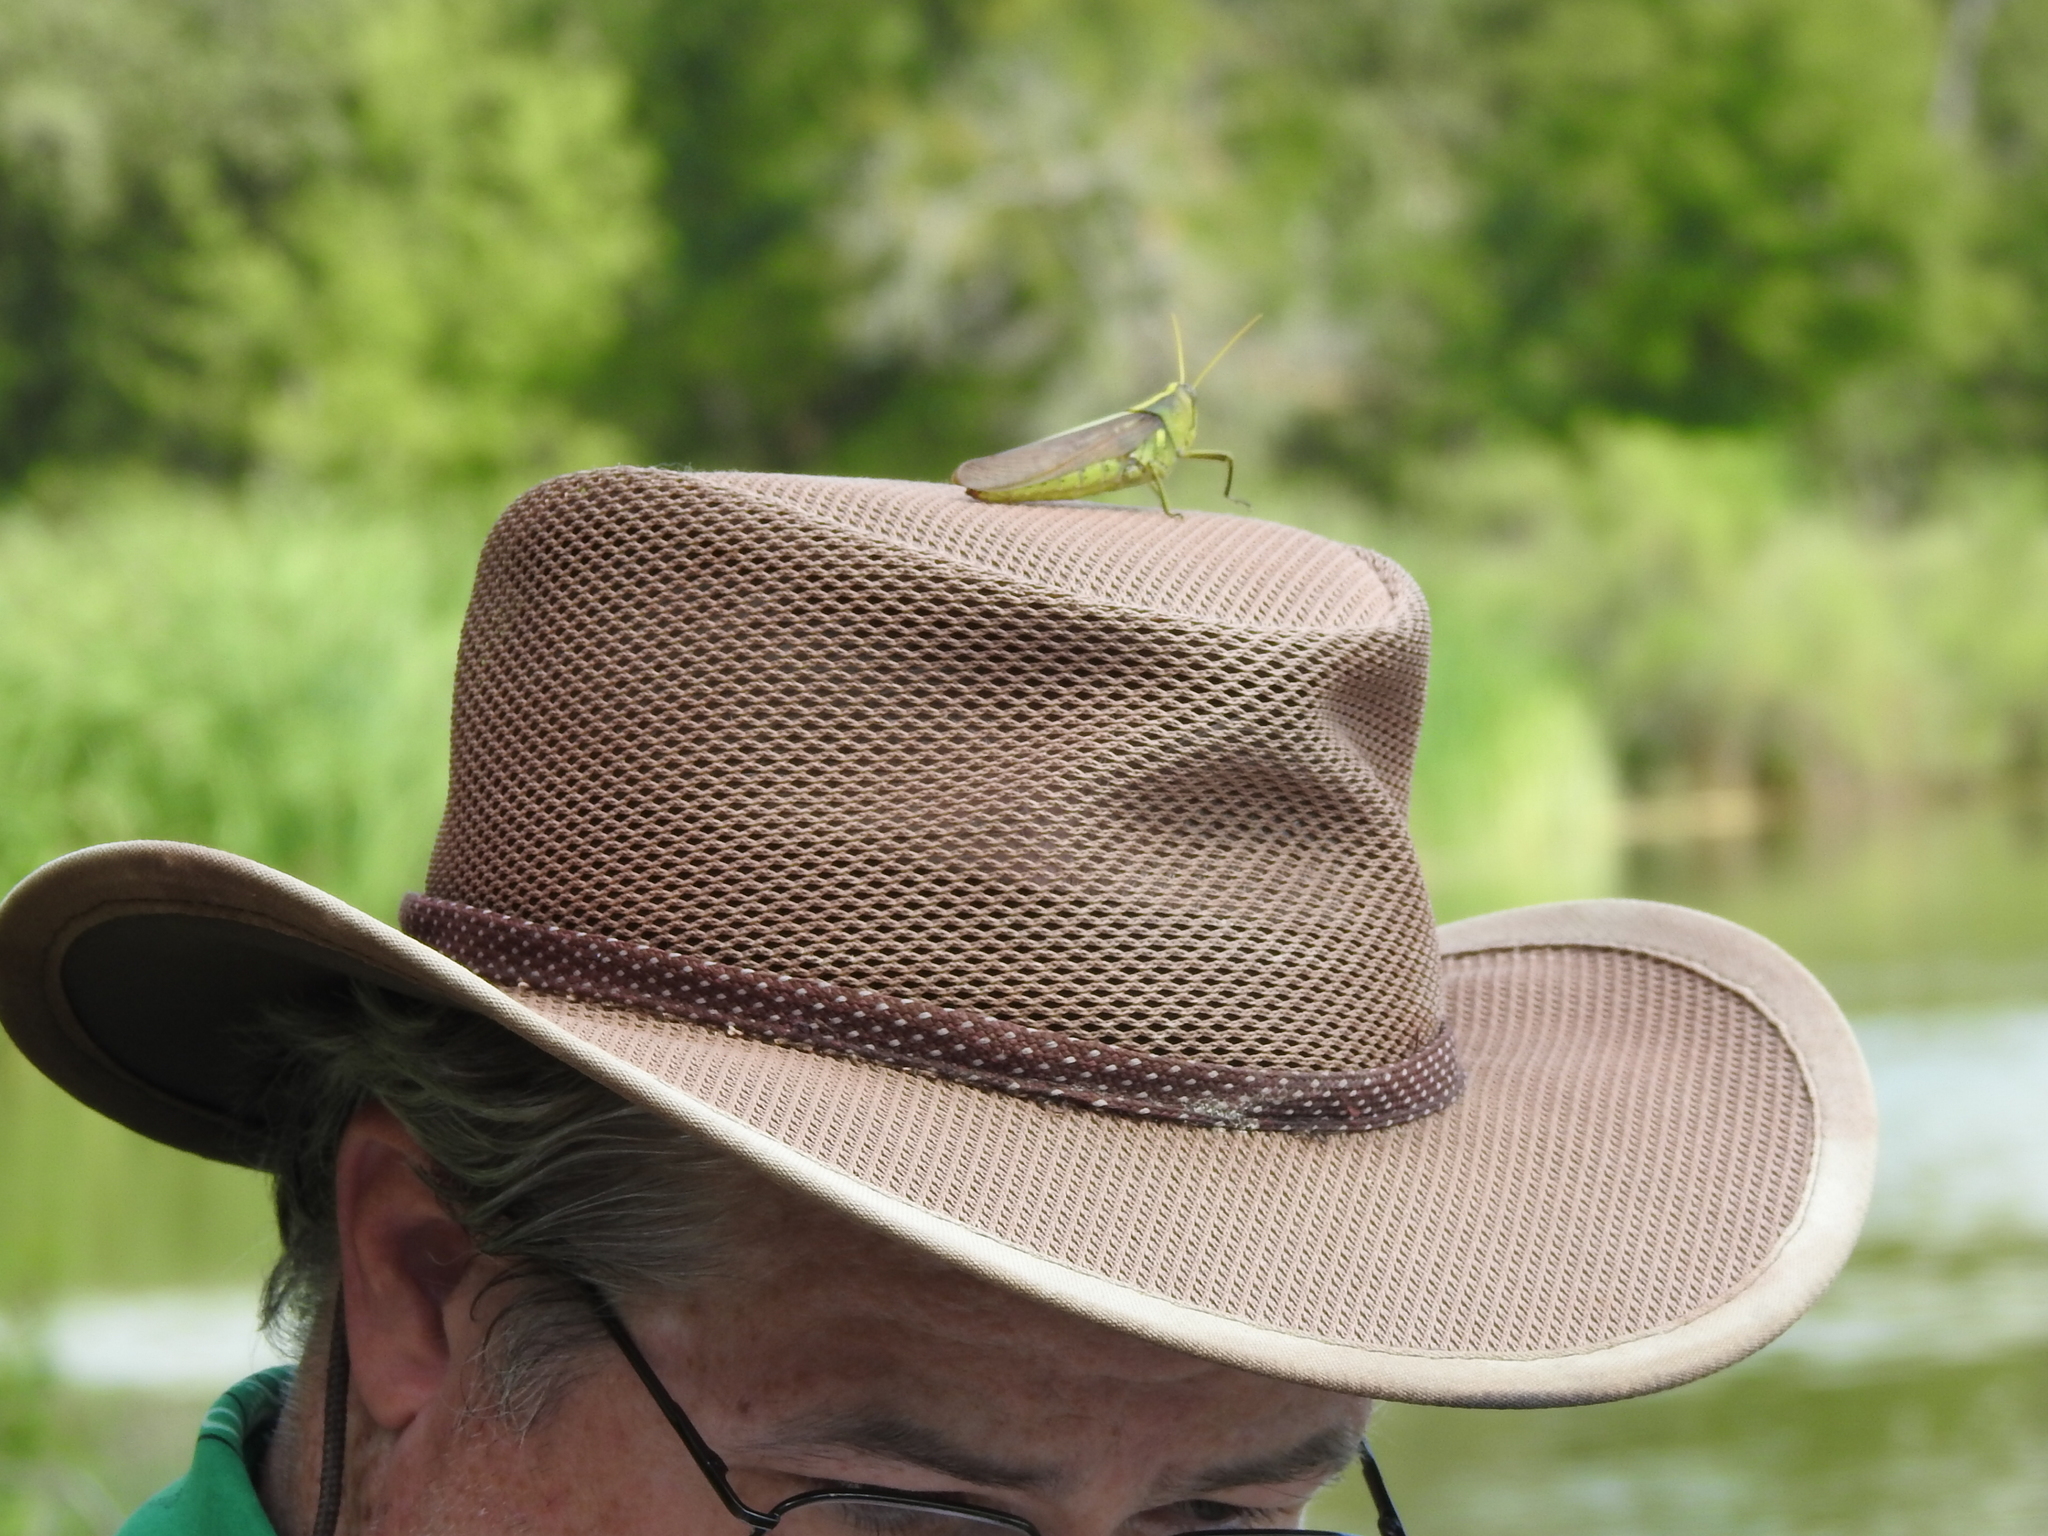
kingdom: Animalia
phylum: Arthropoda
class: Insecta
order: Orthoptera
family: Acrididae
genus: Schistocerca
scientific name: Schistocerca obscura
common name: Obscure bird grasshopper
